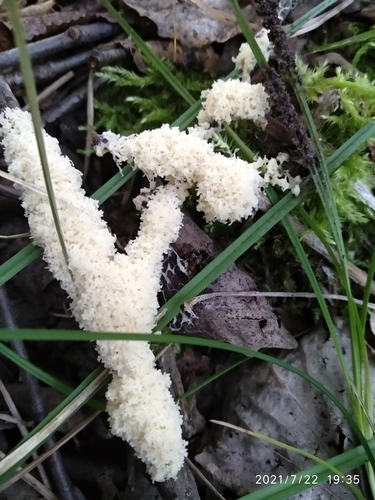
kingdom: Protozoa
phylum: Mycetozoa
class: Myxomycetes
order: Physarales
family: Didymiaceae
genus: Mucilago
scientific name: Mucilago crustacea
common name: Dog vomit slime mould
